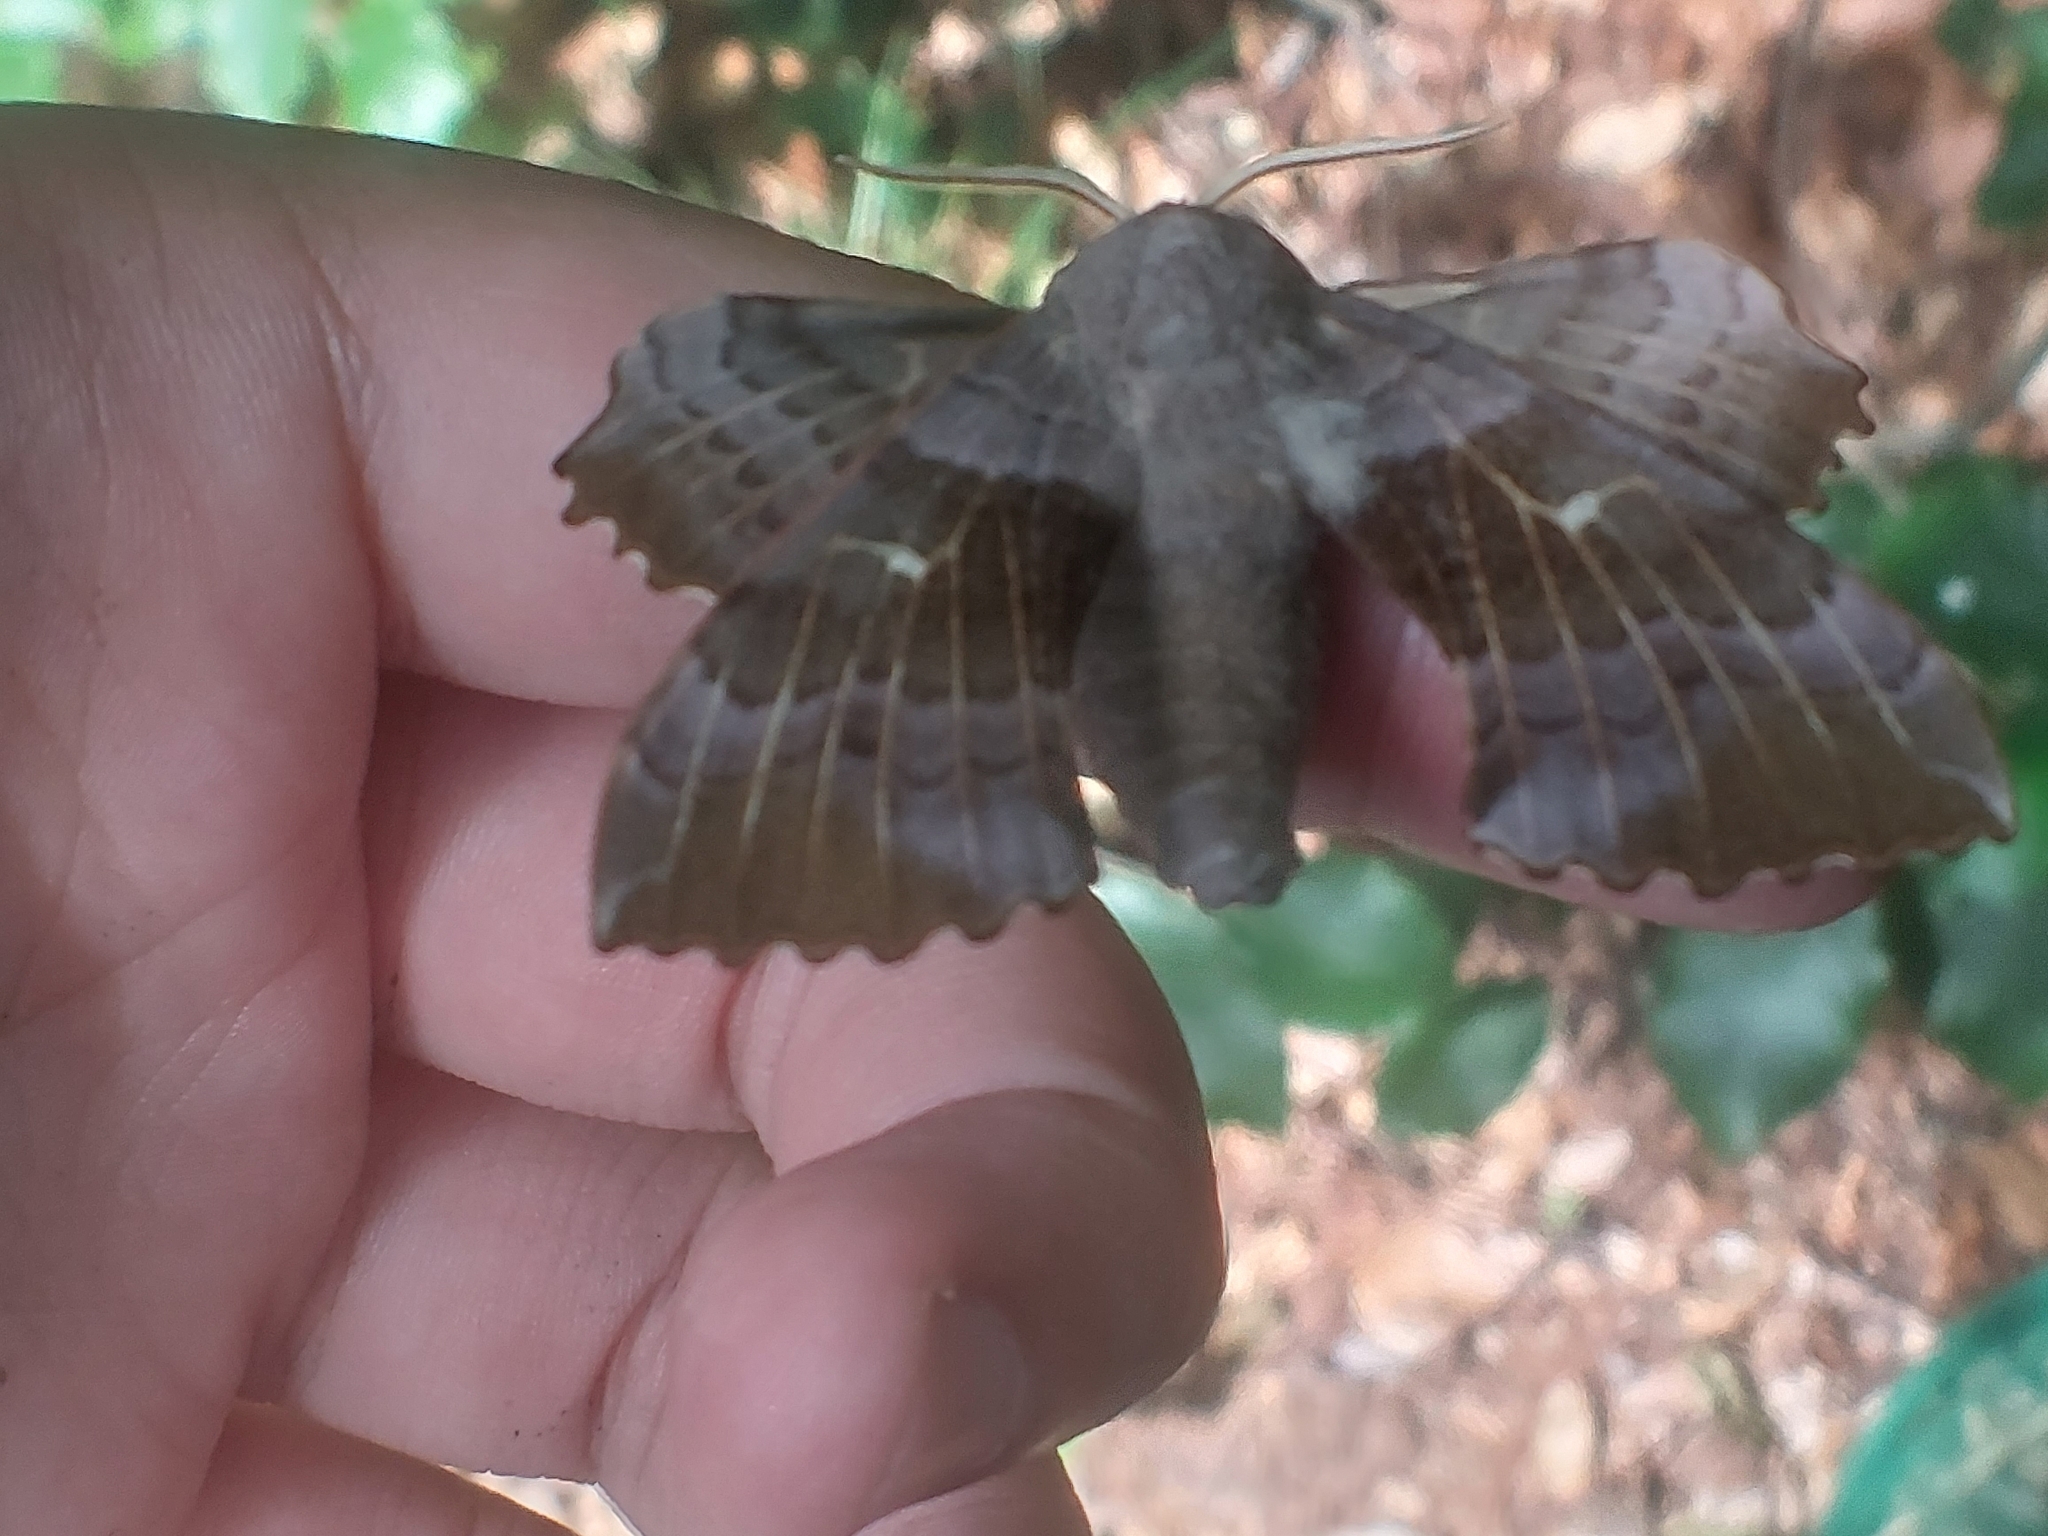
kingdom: Animalia
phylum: Arthropoda
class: Insecta
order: Lepidoptera
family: Sphingidae
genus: Laothoe
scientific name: Laothoe populi
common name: Poplar hawk-moth
